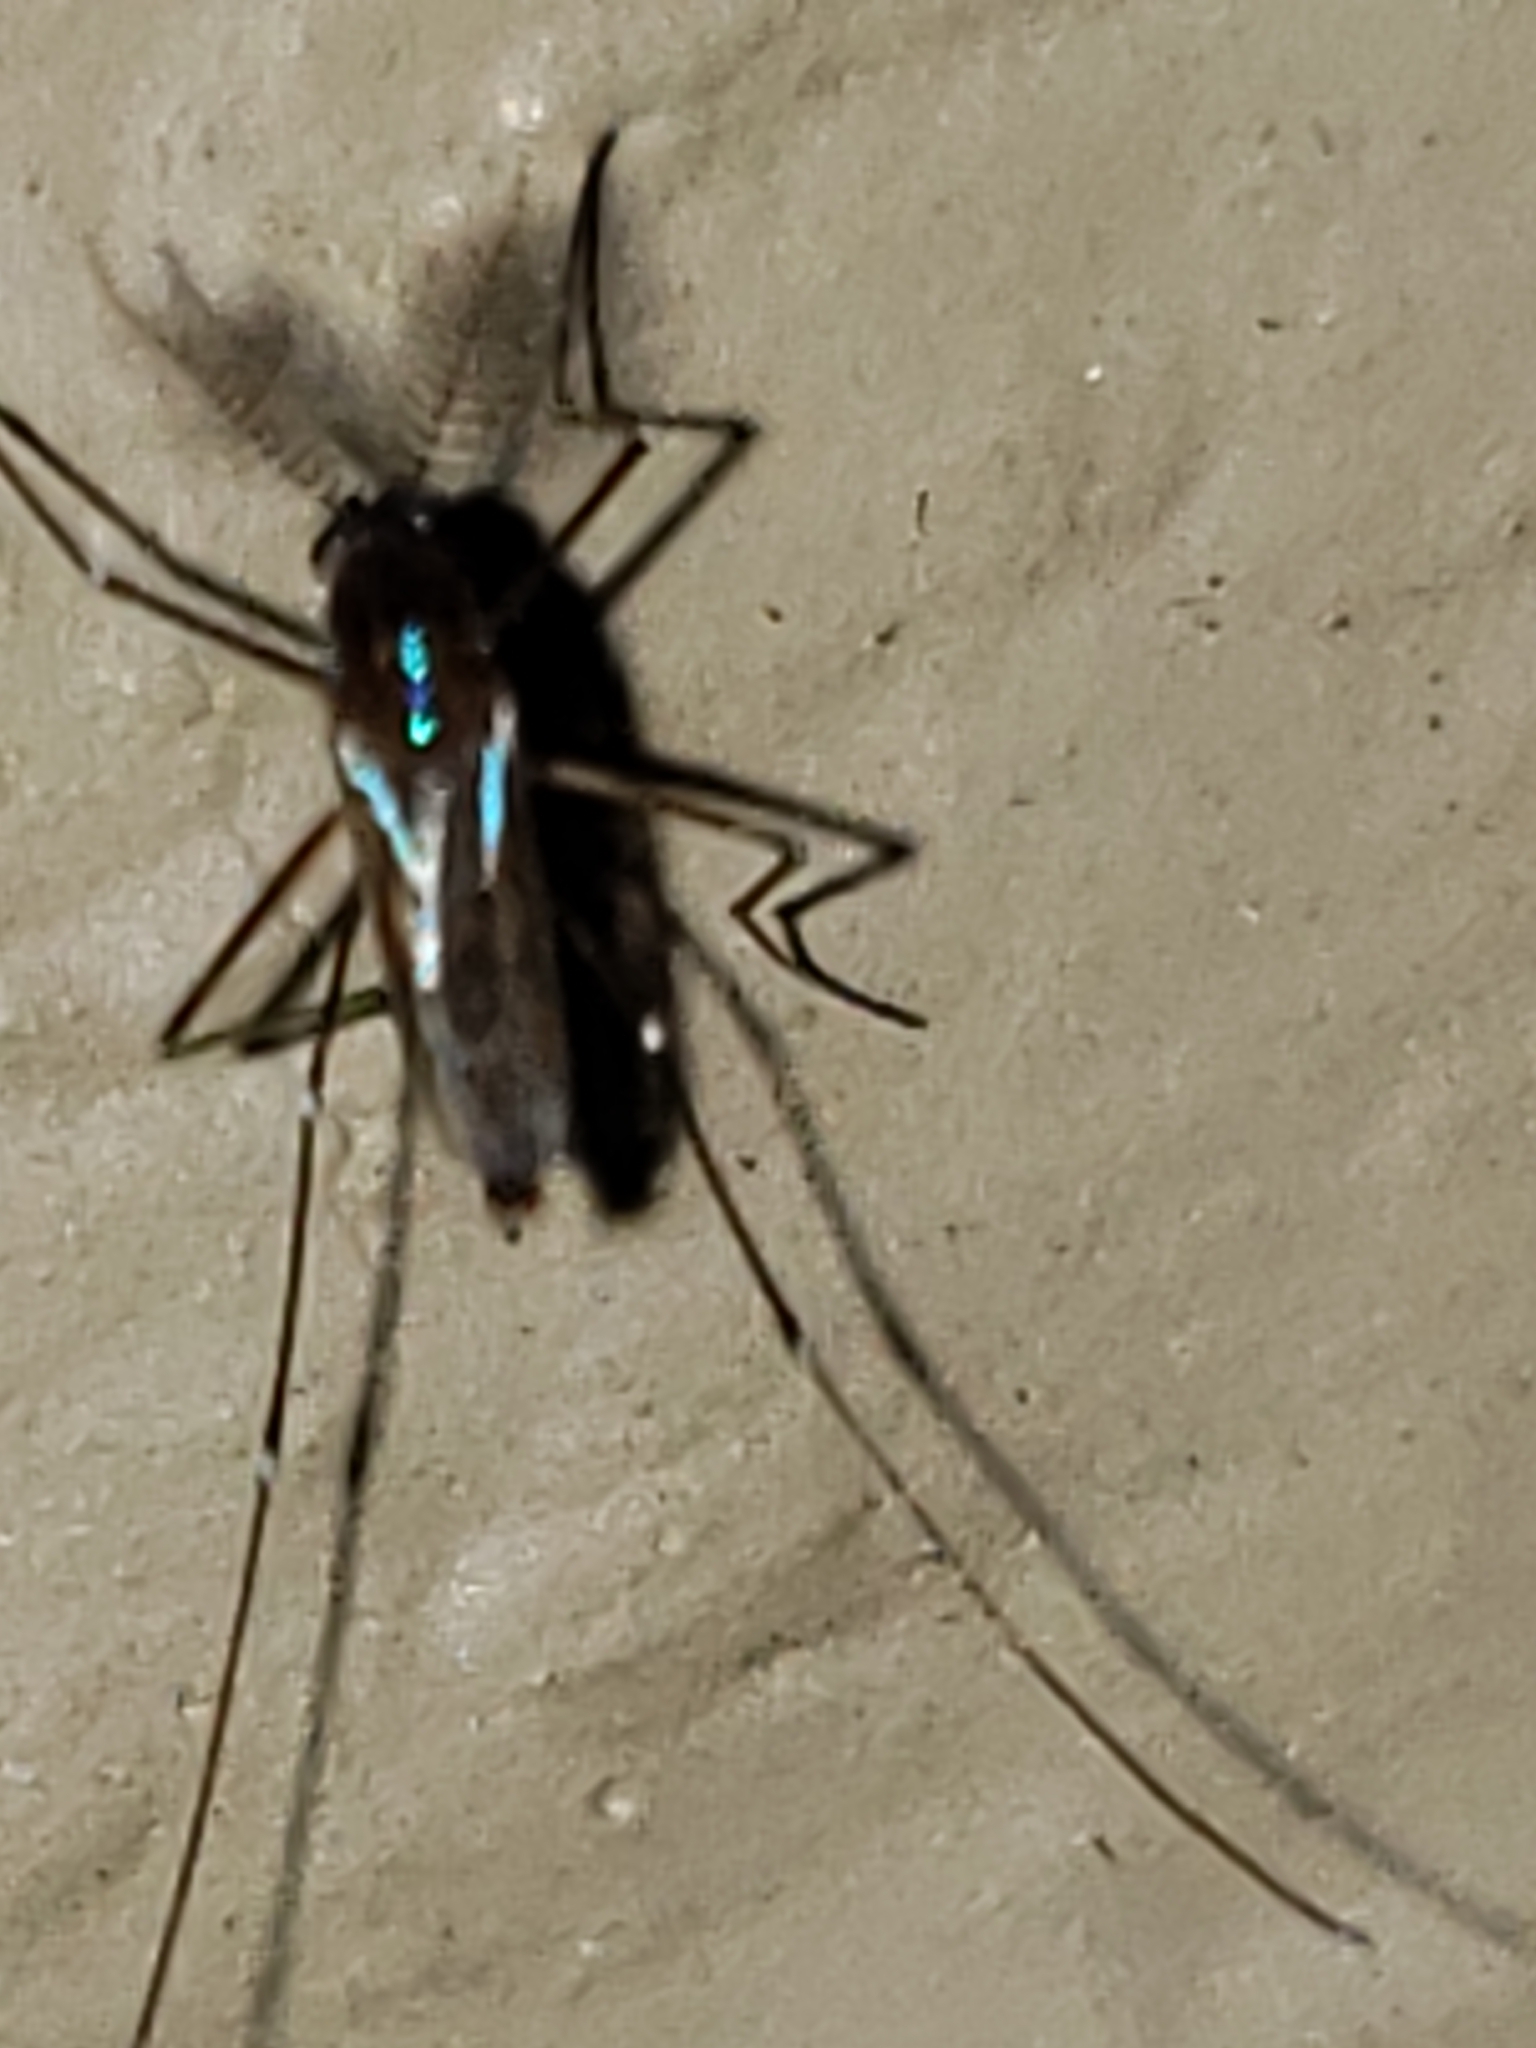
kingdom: Animalia
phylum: Arthropoda
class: Insecta
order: Diptera
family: Culicidae
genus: Uranotaenia
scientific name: Uranotaenia sapphirina
